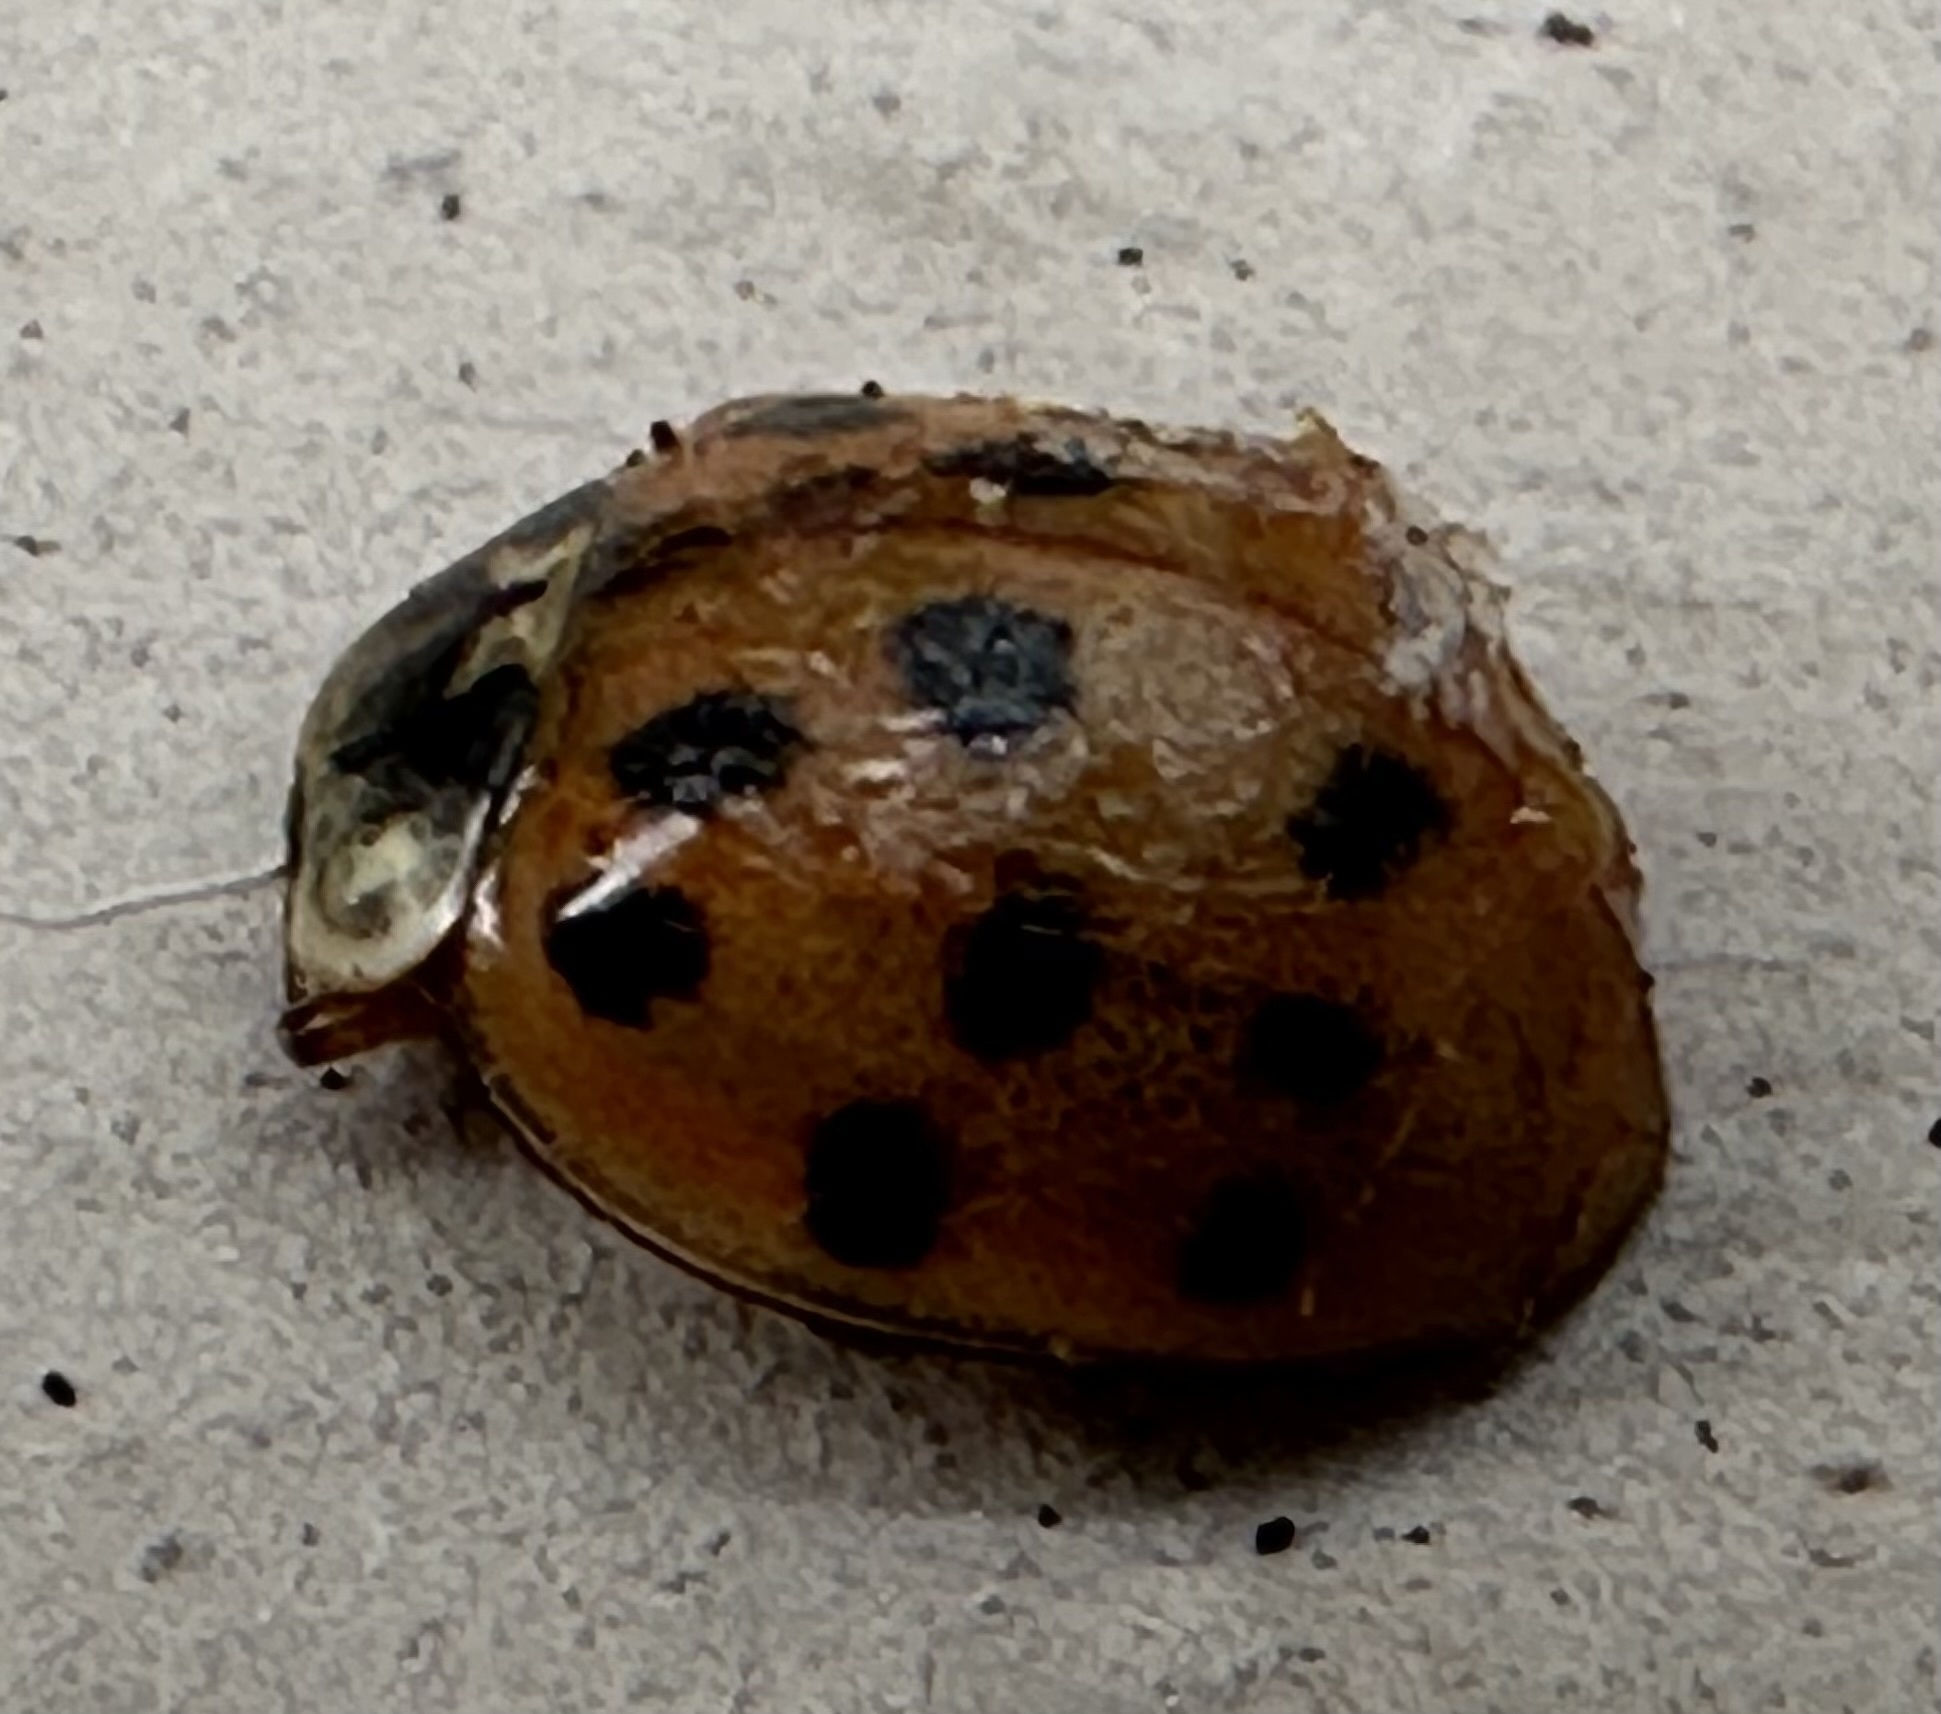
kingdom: Animalia
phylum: Arthropoda
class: Insecta
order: Coleoptera
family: Coccinellidae
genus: Harmonia
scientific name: Harmonia axyridis
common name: Harlequin ladybird
